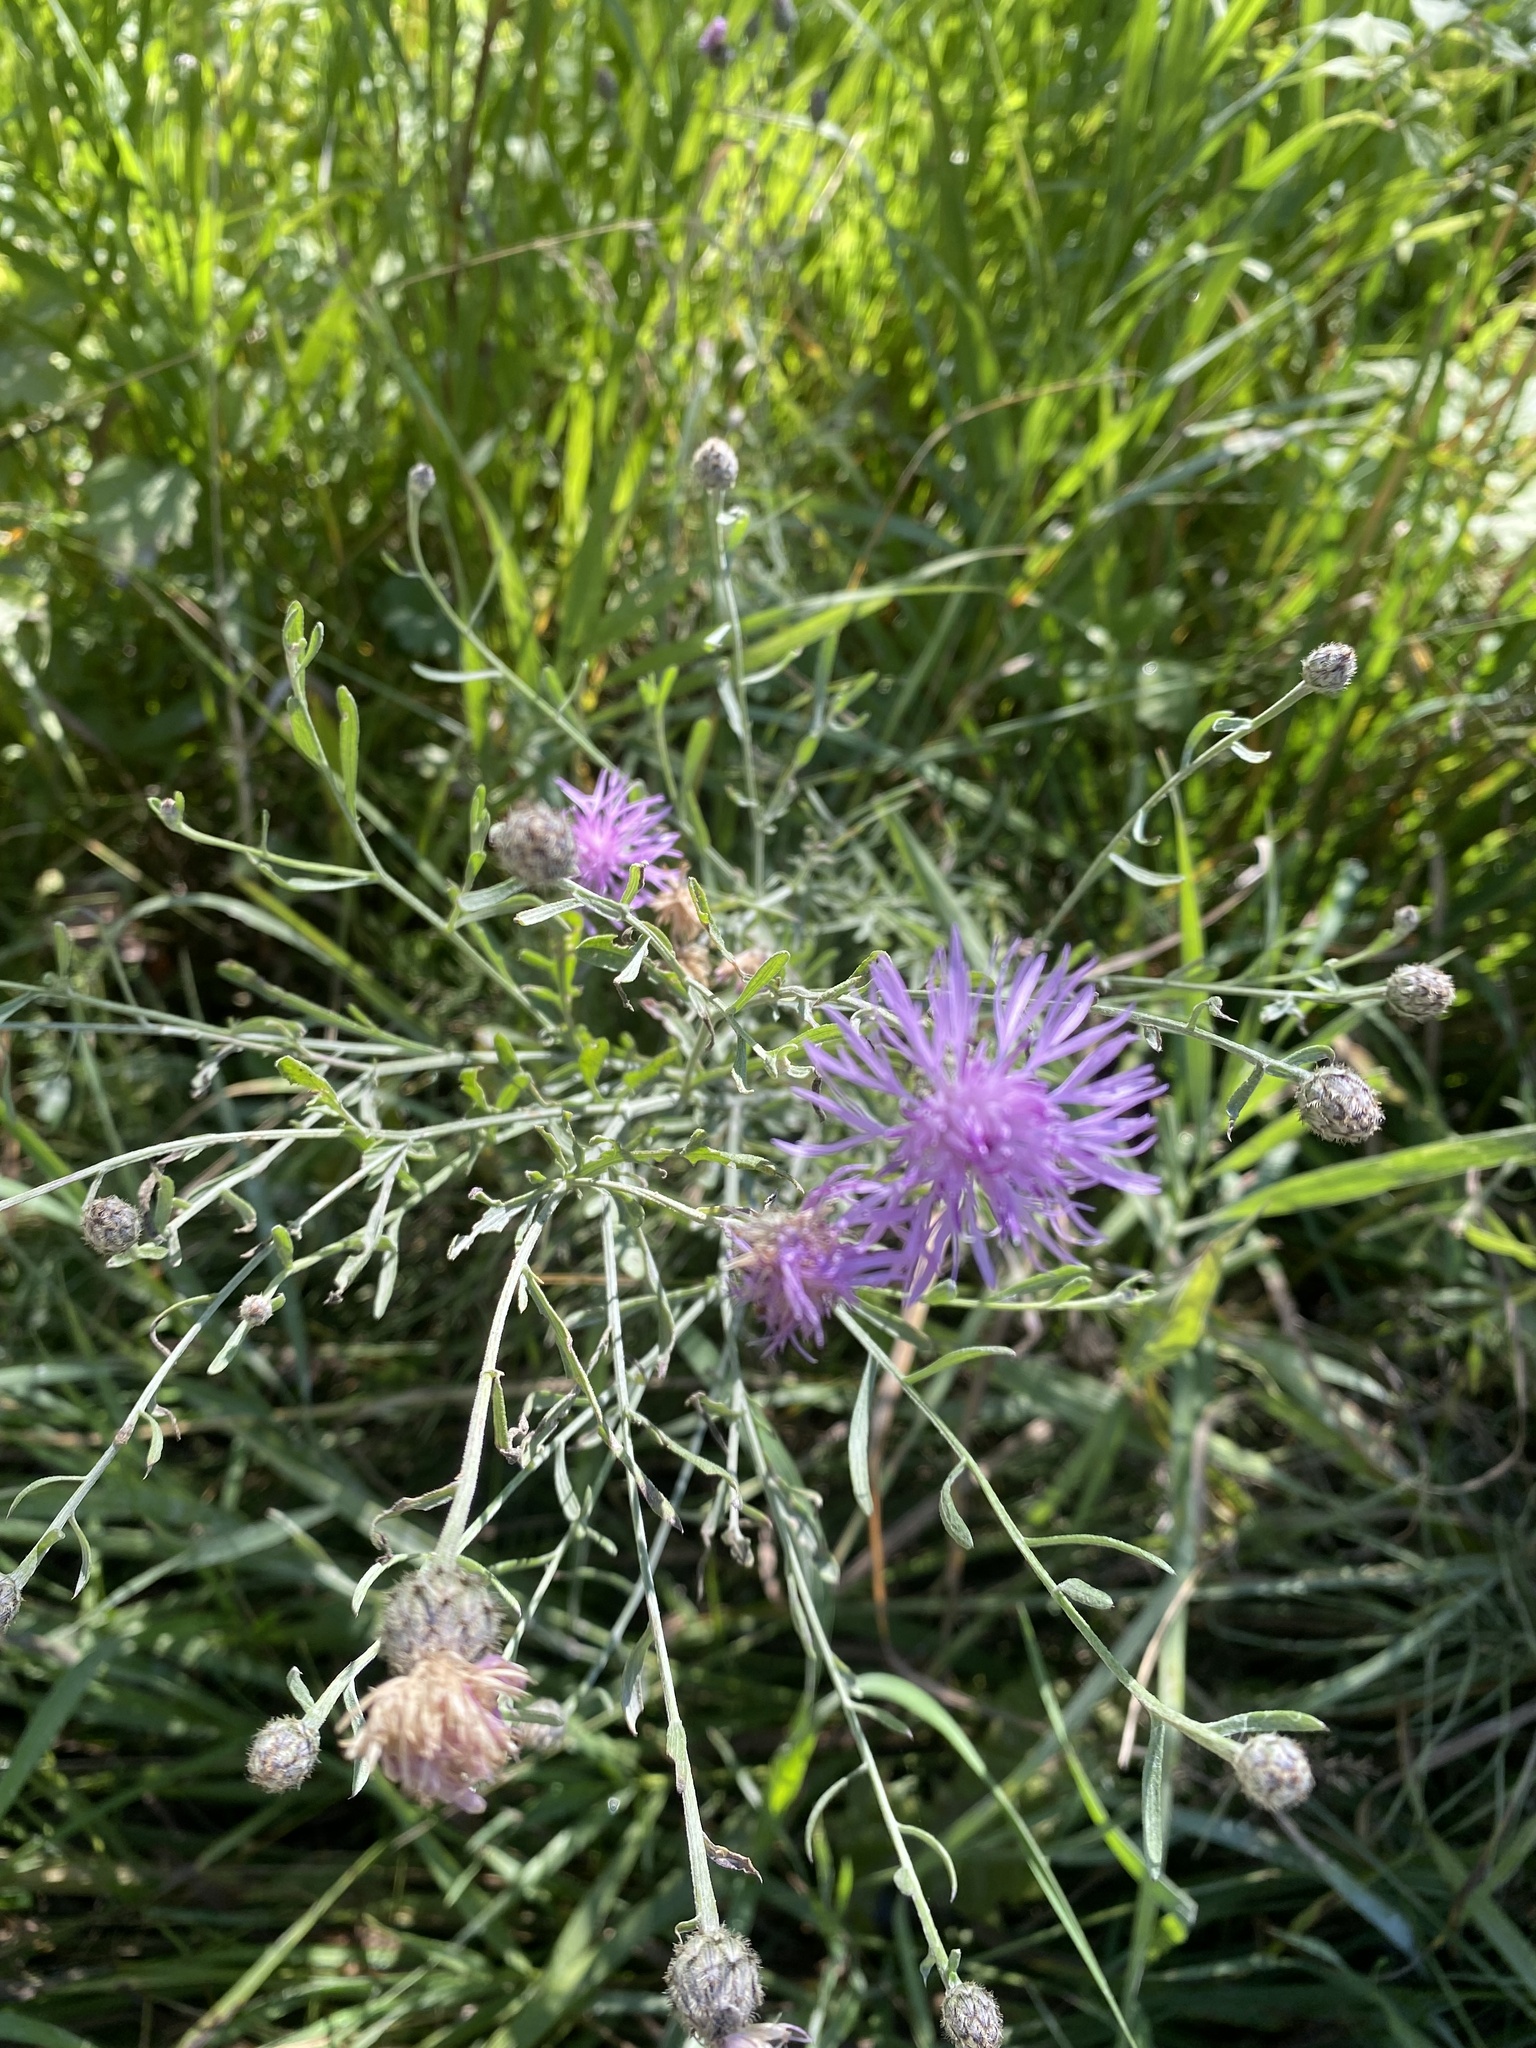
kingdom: Plantae
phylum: Tracheophyta
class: Magnoliopsida
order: Asterales
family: Asteraceae
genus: Centaurea
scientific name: Centaurea stoebe
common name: Spotted knapweed
